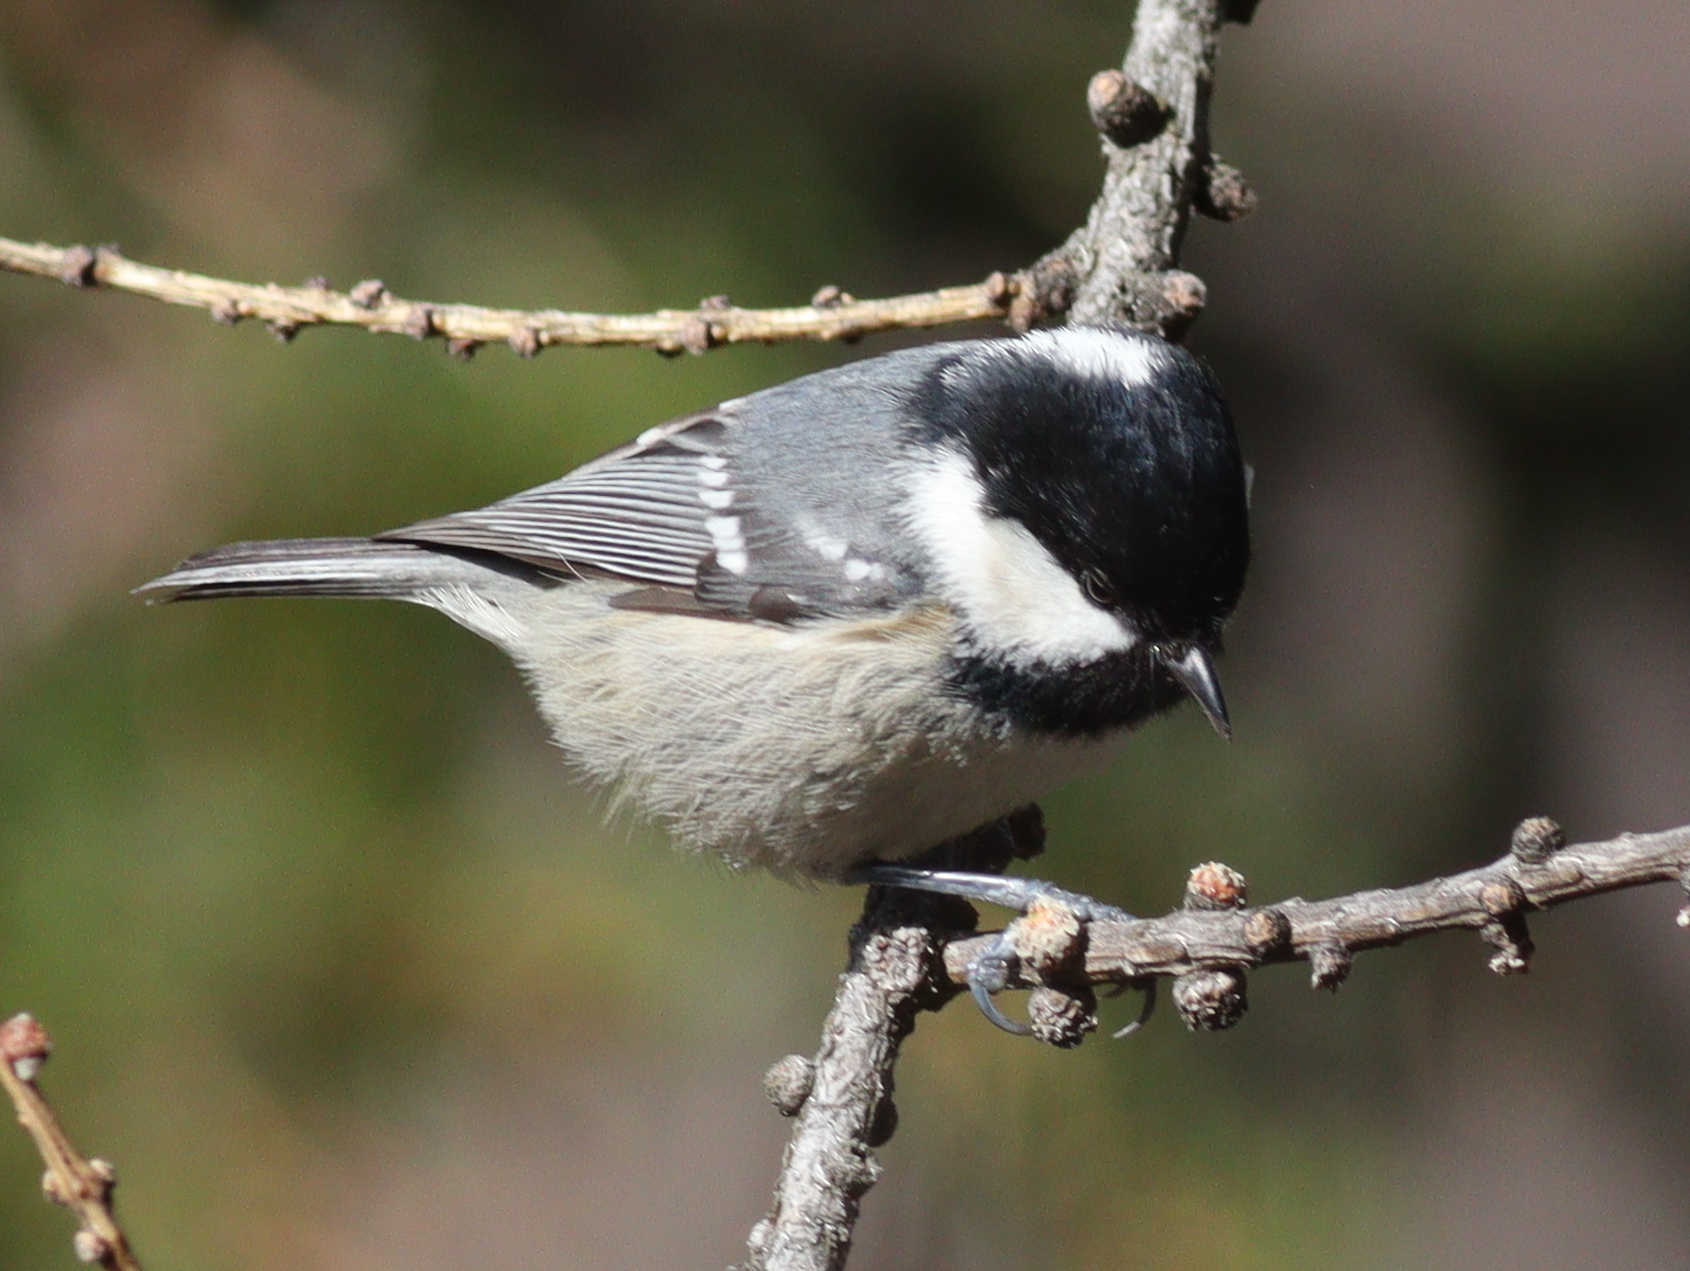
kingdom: Animalia
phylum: Chordata
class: Aves
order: Passeriformes
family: Paridae
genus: Periparus
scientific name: Periparus ater
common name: Coal tit
